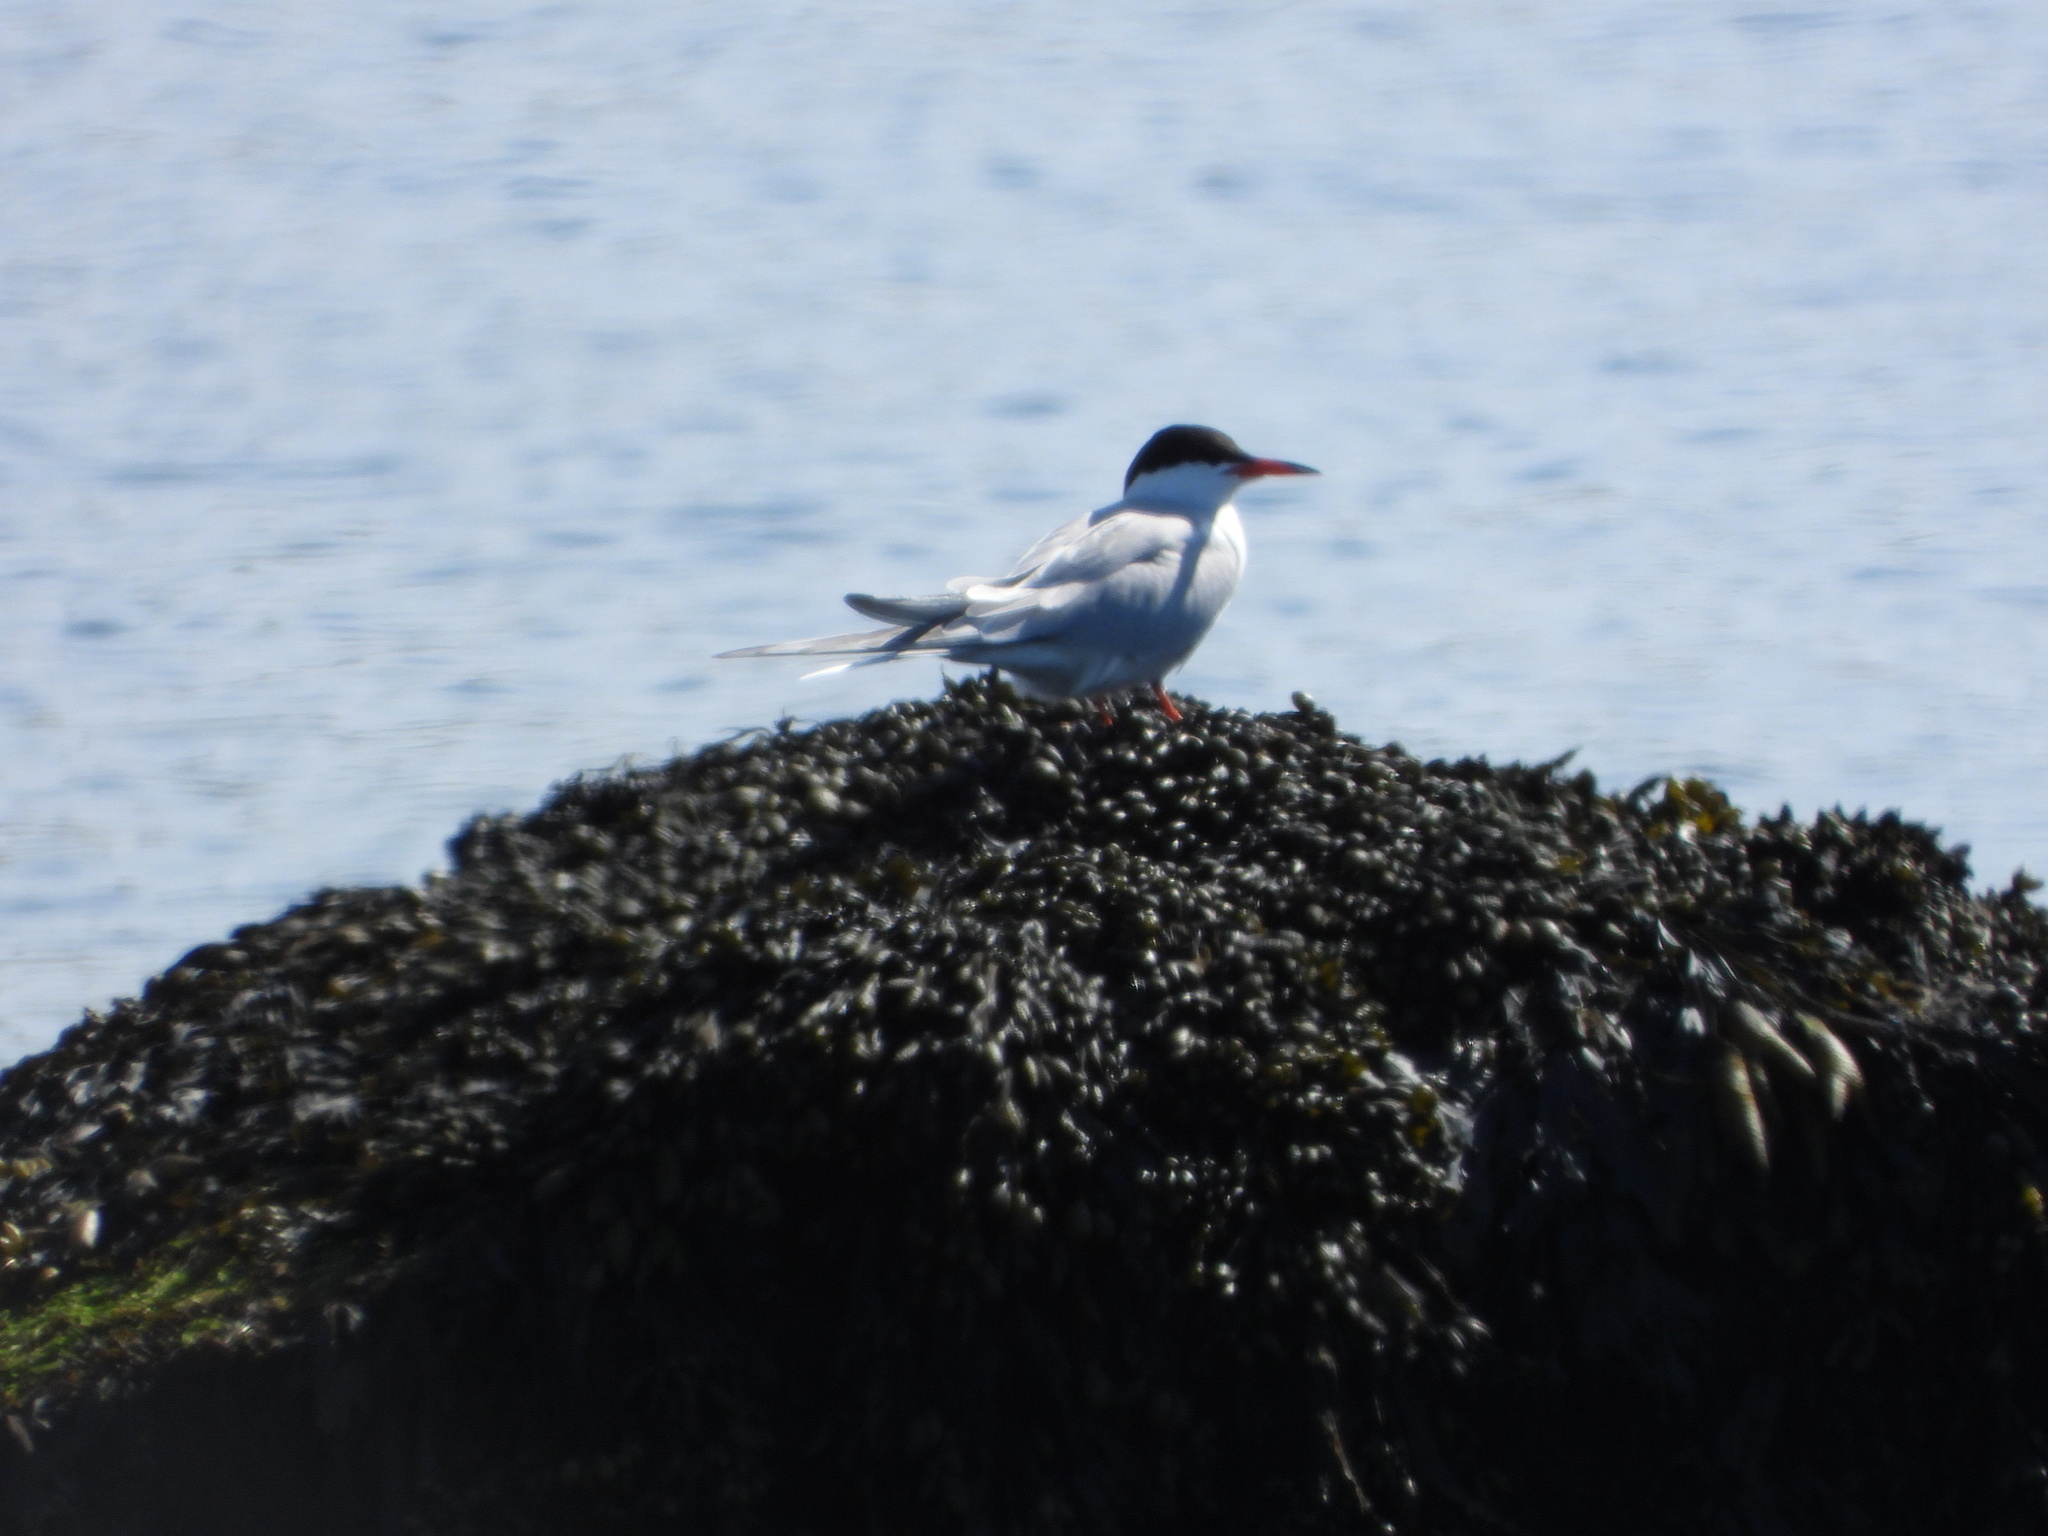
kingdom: Animalia
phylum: Chordata
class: Aves
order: Charadriiformes
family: Laridae
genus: Sterna
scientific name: Sterna hirundo
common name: Common tern
